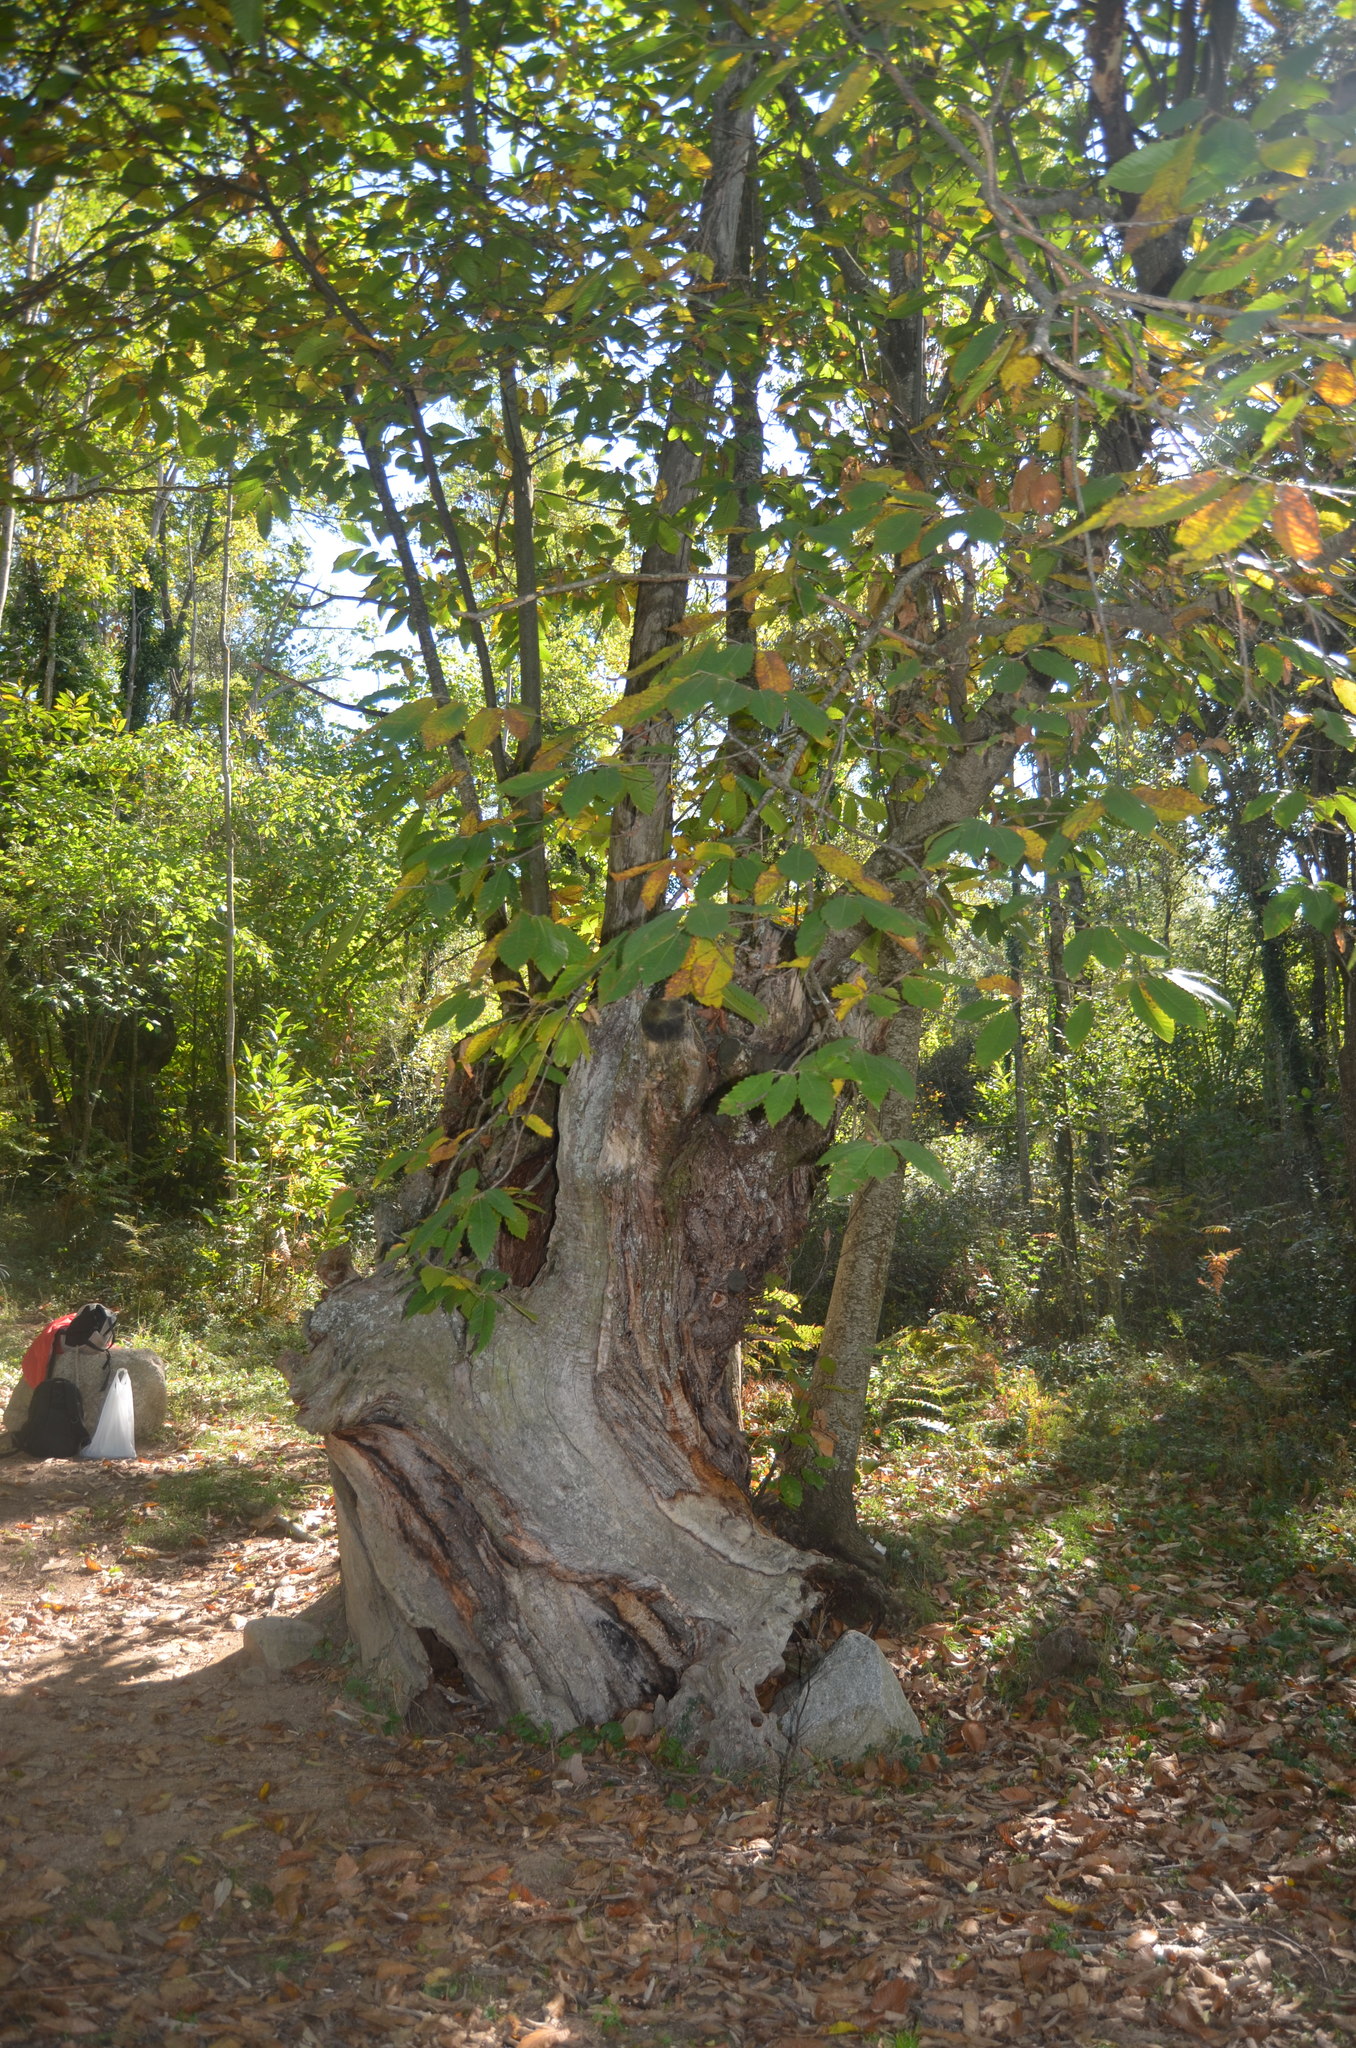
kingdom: Plantae
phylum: Tracheophyta
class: Magnoliopsida
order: Fagales
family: Fagaceae
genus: Castanea
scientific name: Castanea sativa
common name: Sweet chestnut
